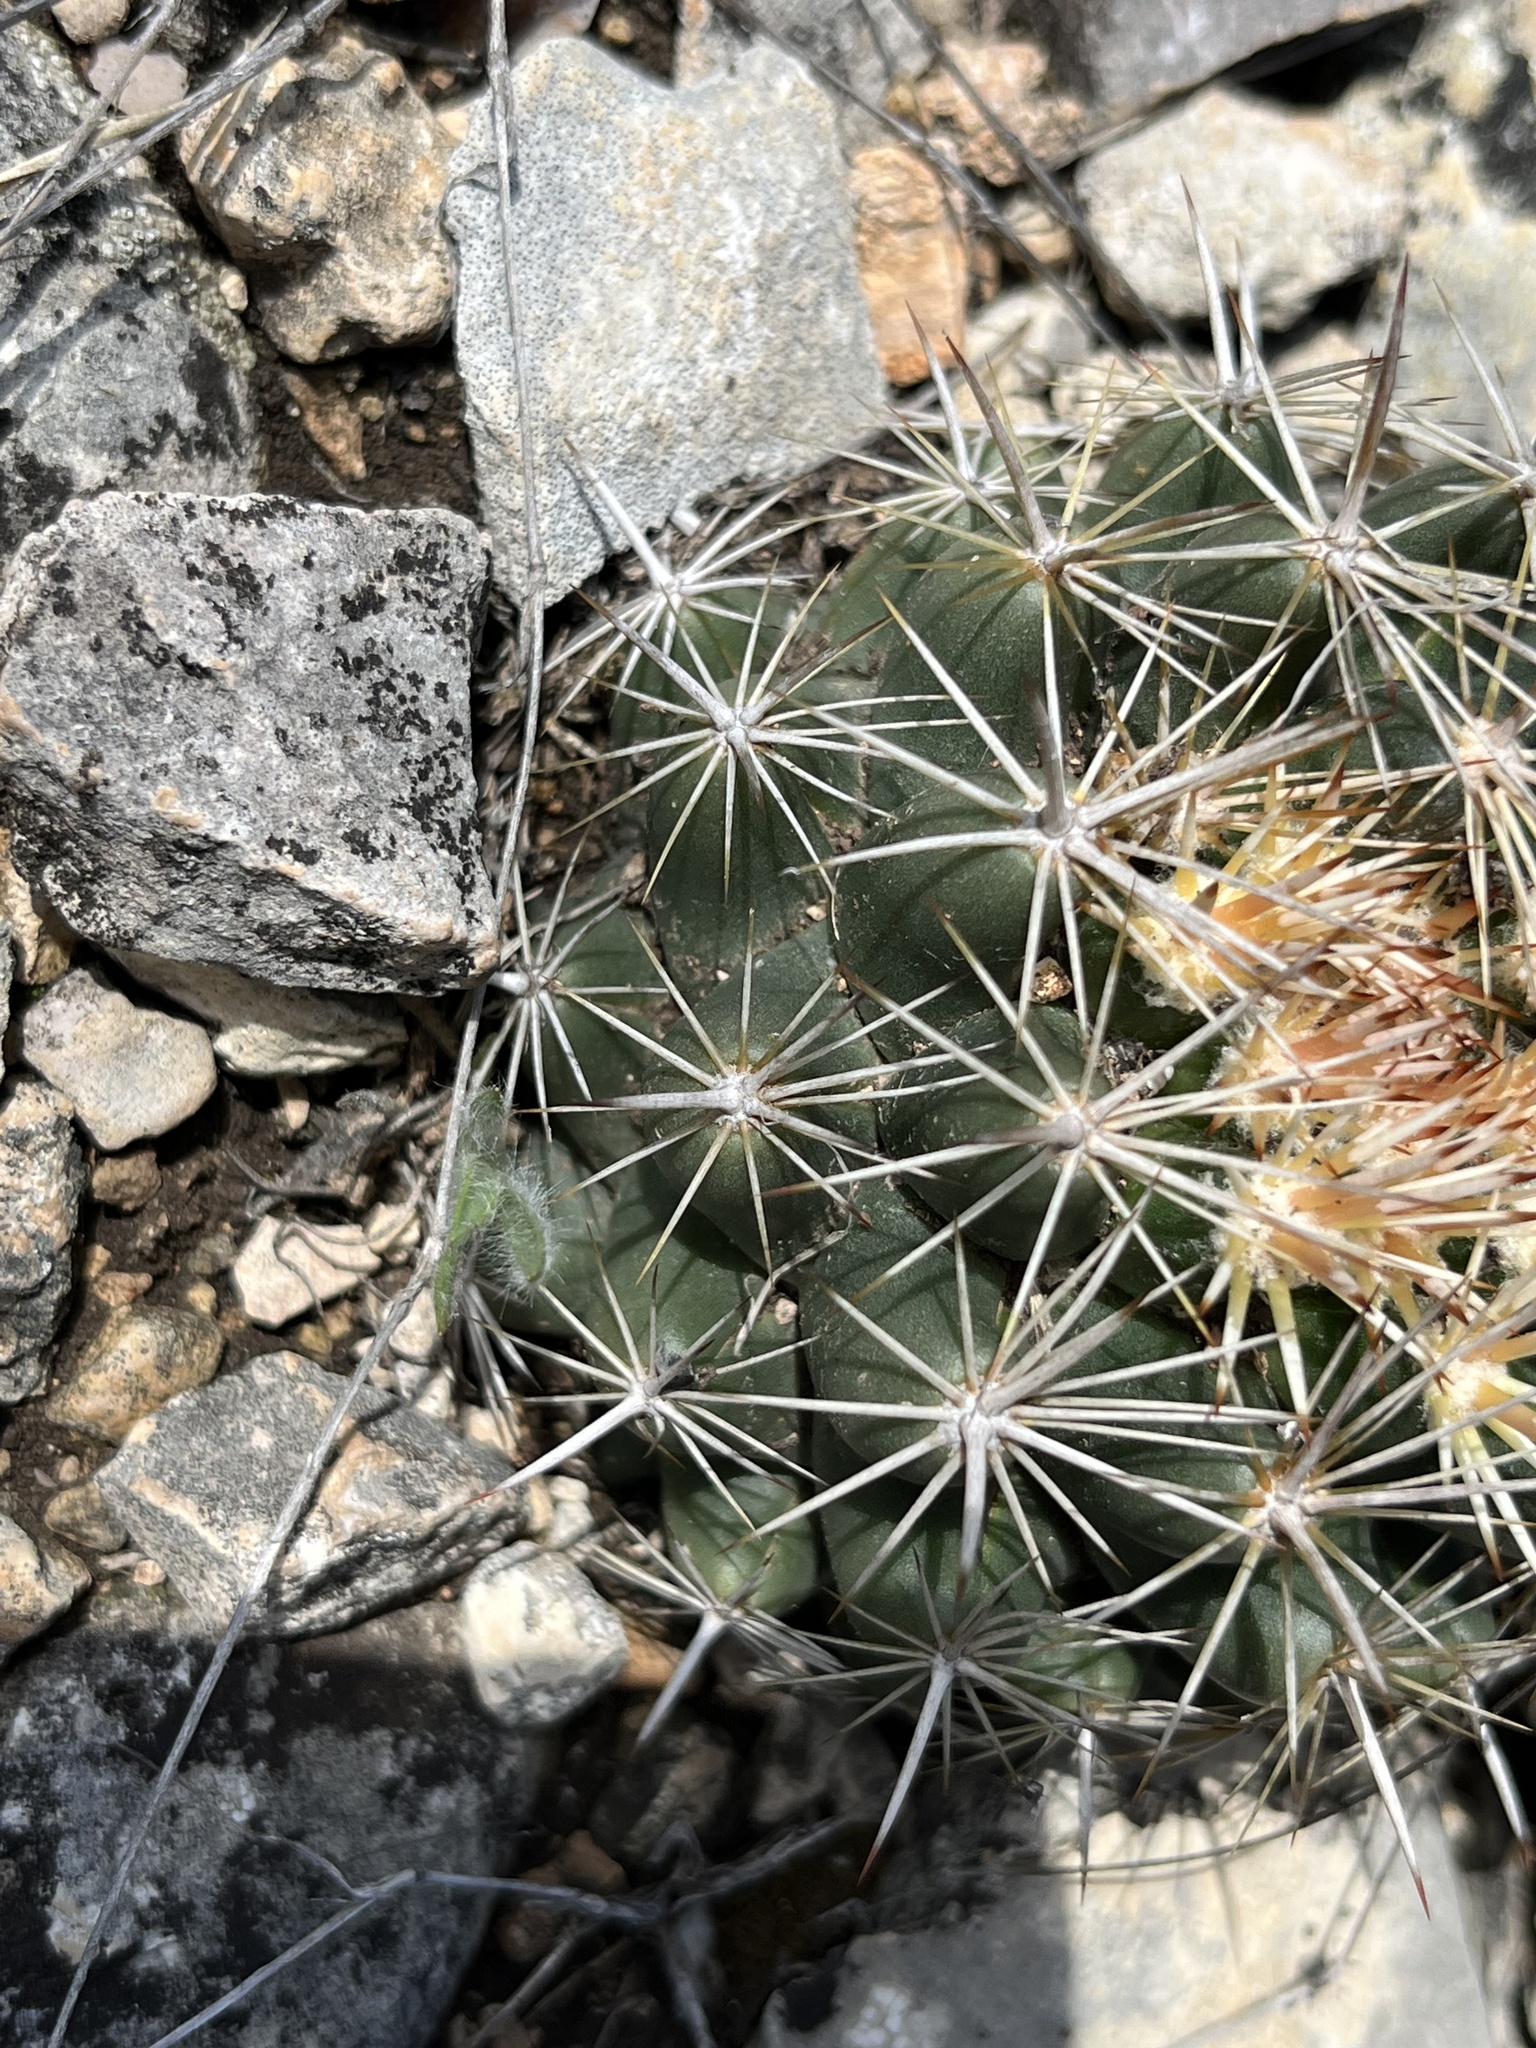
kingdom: Plantae
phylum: Tracheophyta
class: Magnoliopsida
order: Caryophyllales
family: Cactaceae
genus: Coryphantha
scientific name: Coryphantha sulcata
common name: Finger cactus
